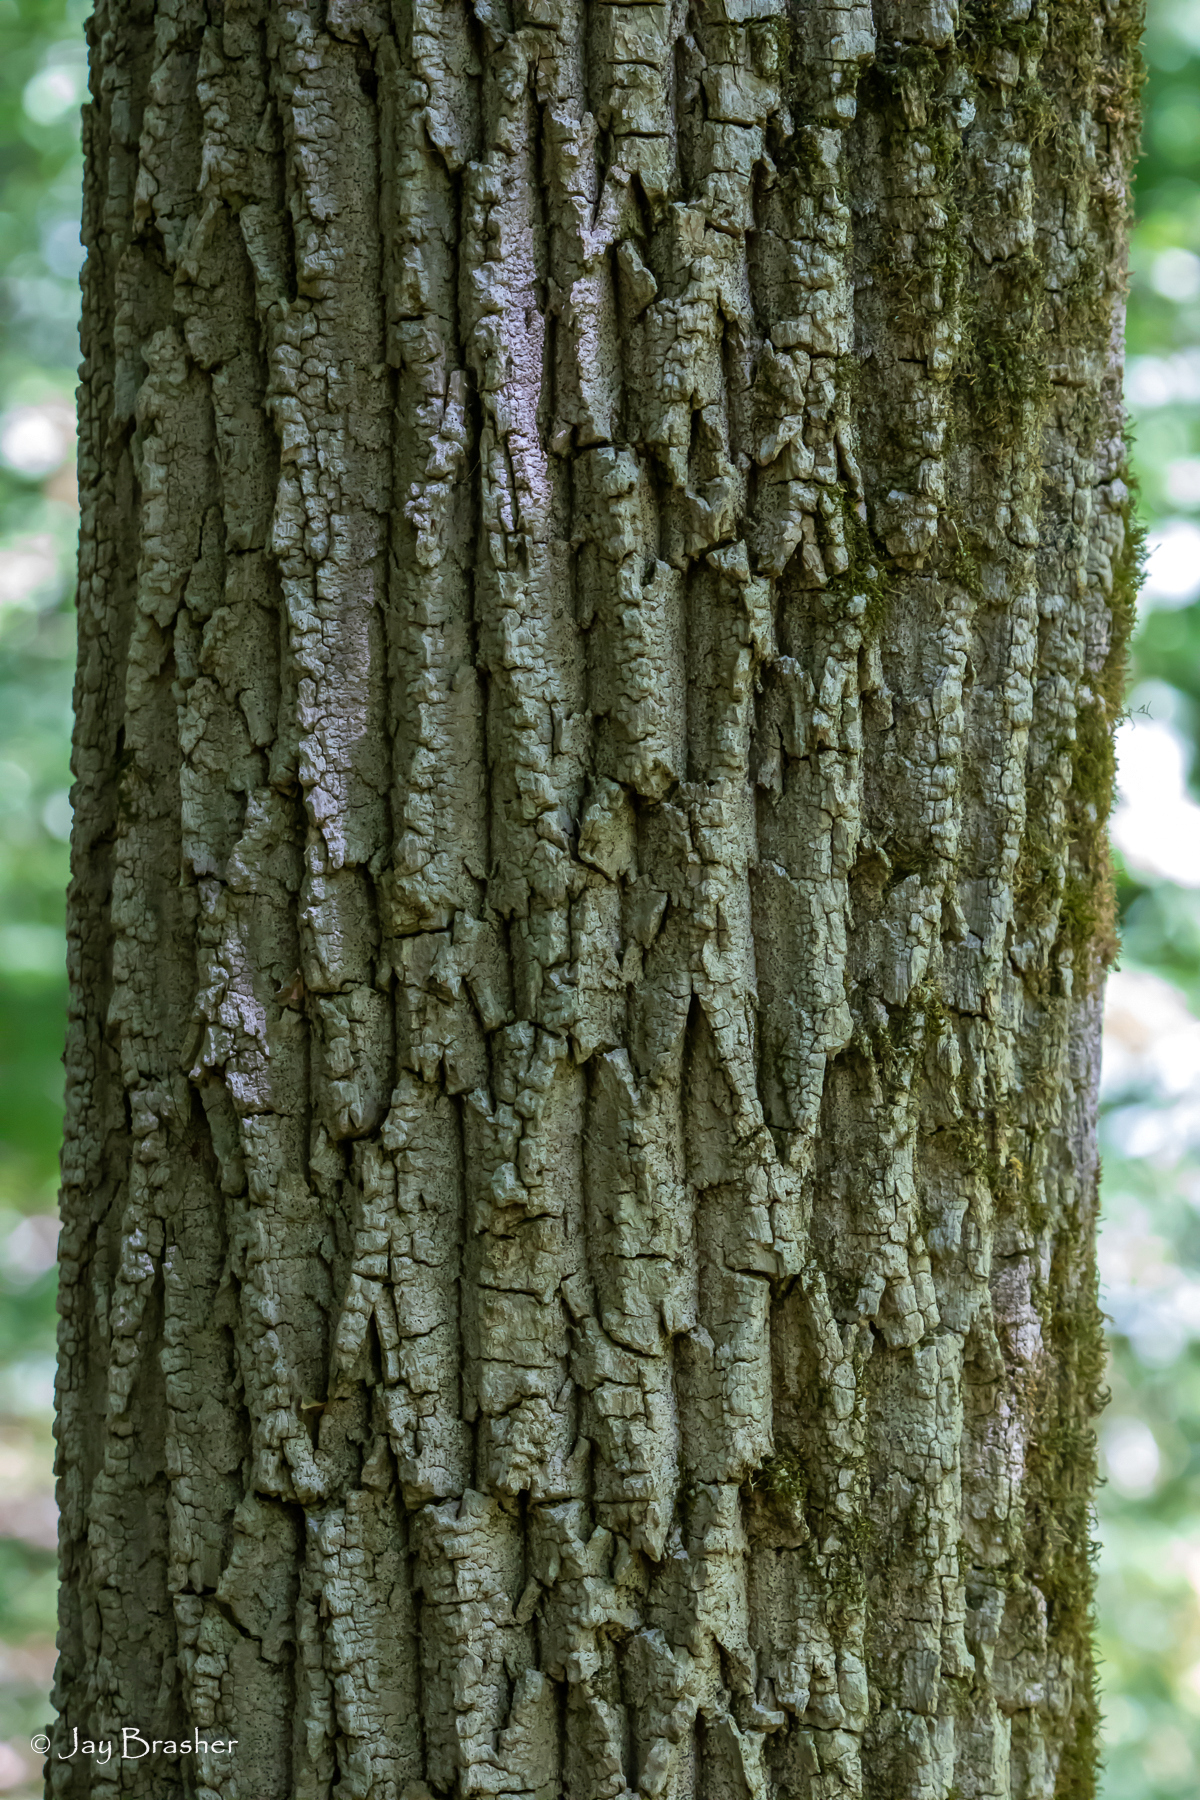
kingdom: Plantae
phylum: Tracheophyta
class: Magnoliopsida
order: Lamiales
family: Oleaceae
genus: Fraxinus
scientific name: Fraxinus americana
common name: White ash
